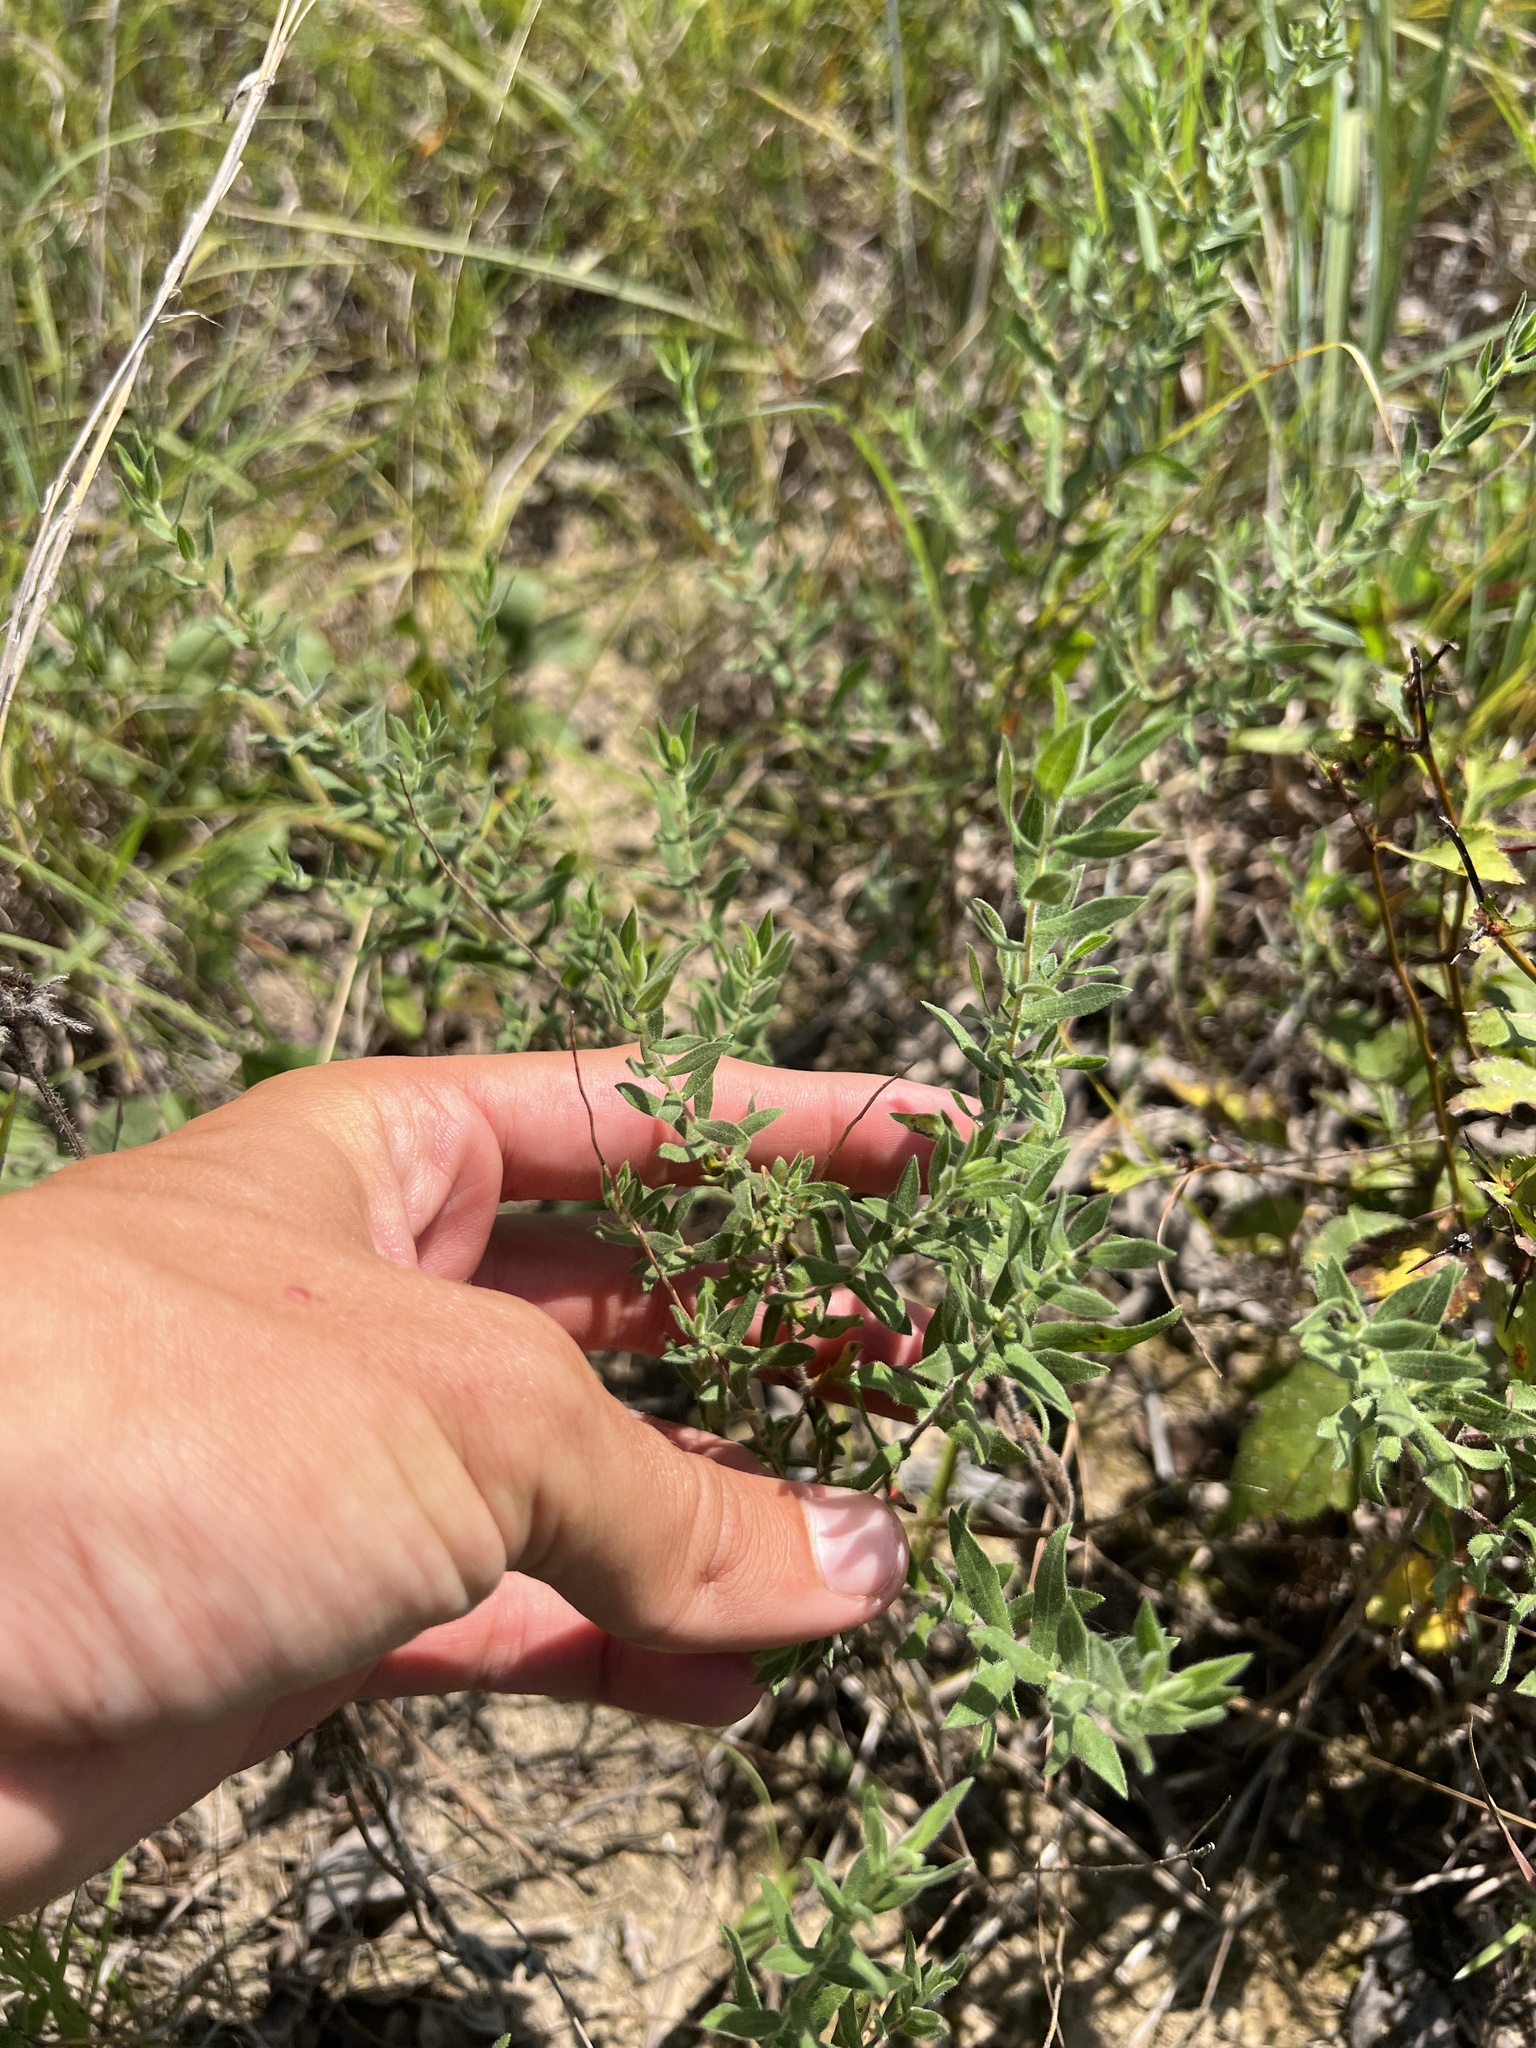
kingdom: Plantae
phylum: Tracheophyta
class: Magnoliopsida
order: Asterales
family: Asteraceae
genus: Symphyotrichum
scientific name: Symphyotrichum oblongifolium
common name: Aromatic aster
